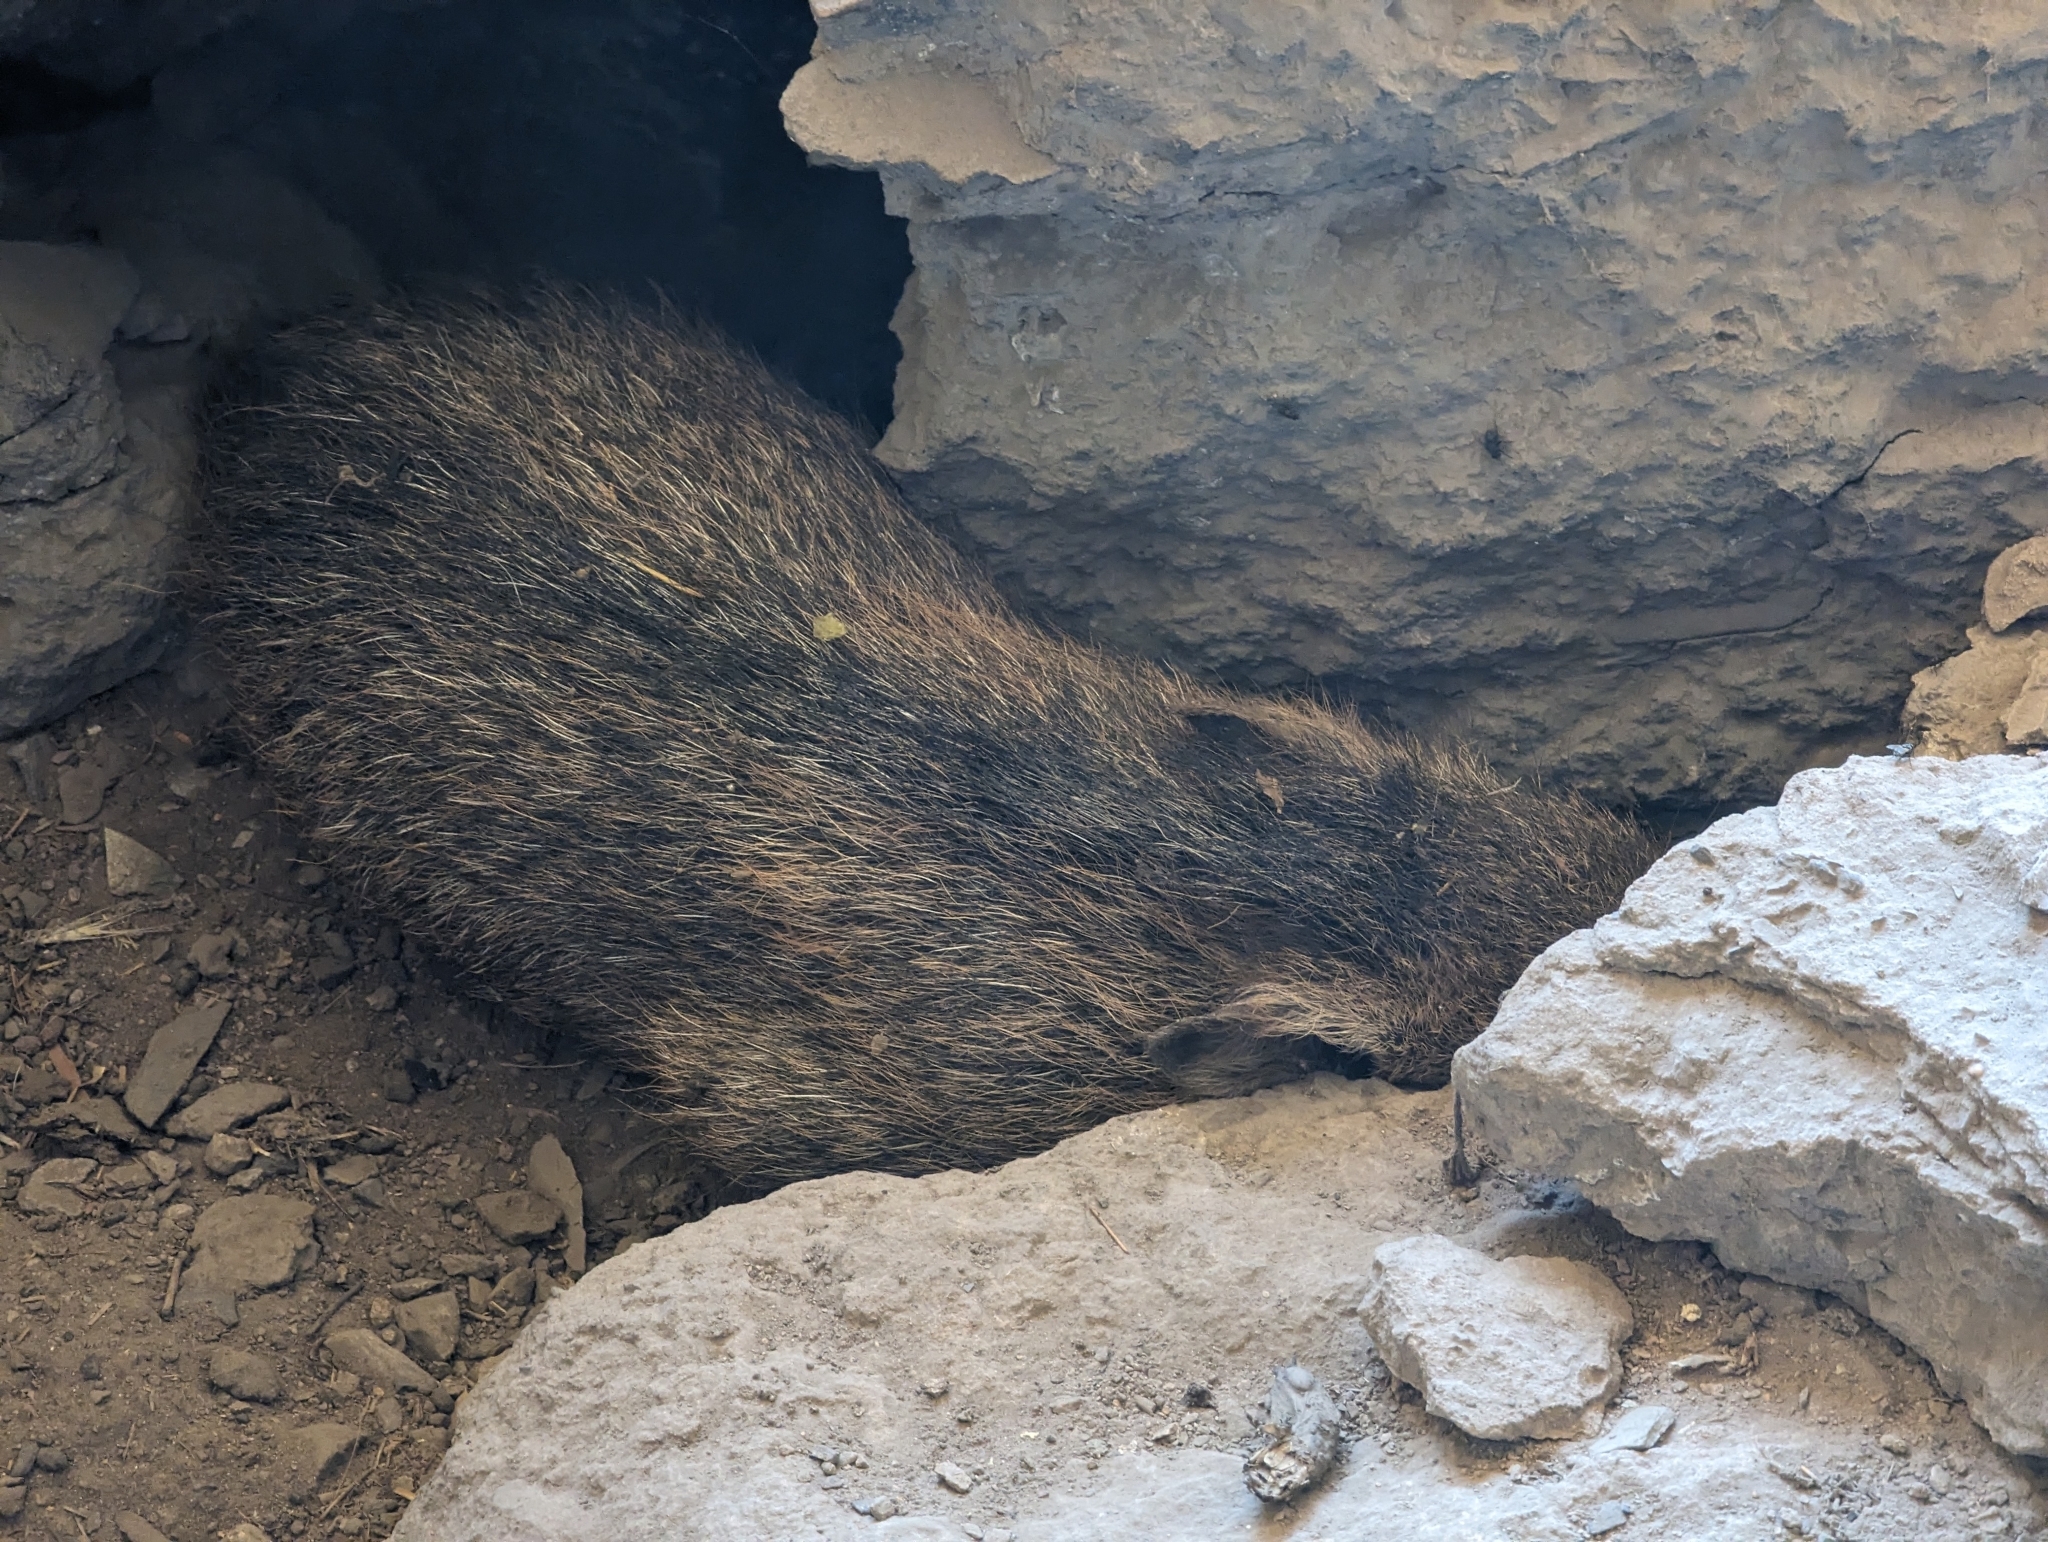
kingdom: Animalia
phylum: Chordata
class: Mammalia
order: Artiodactyla
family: Tayassuidae
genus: Pecari
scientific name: Pecari tajacu
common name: Collared peccary
